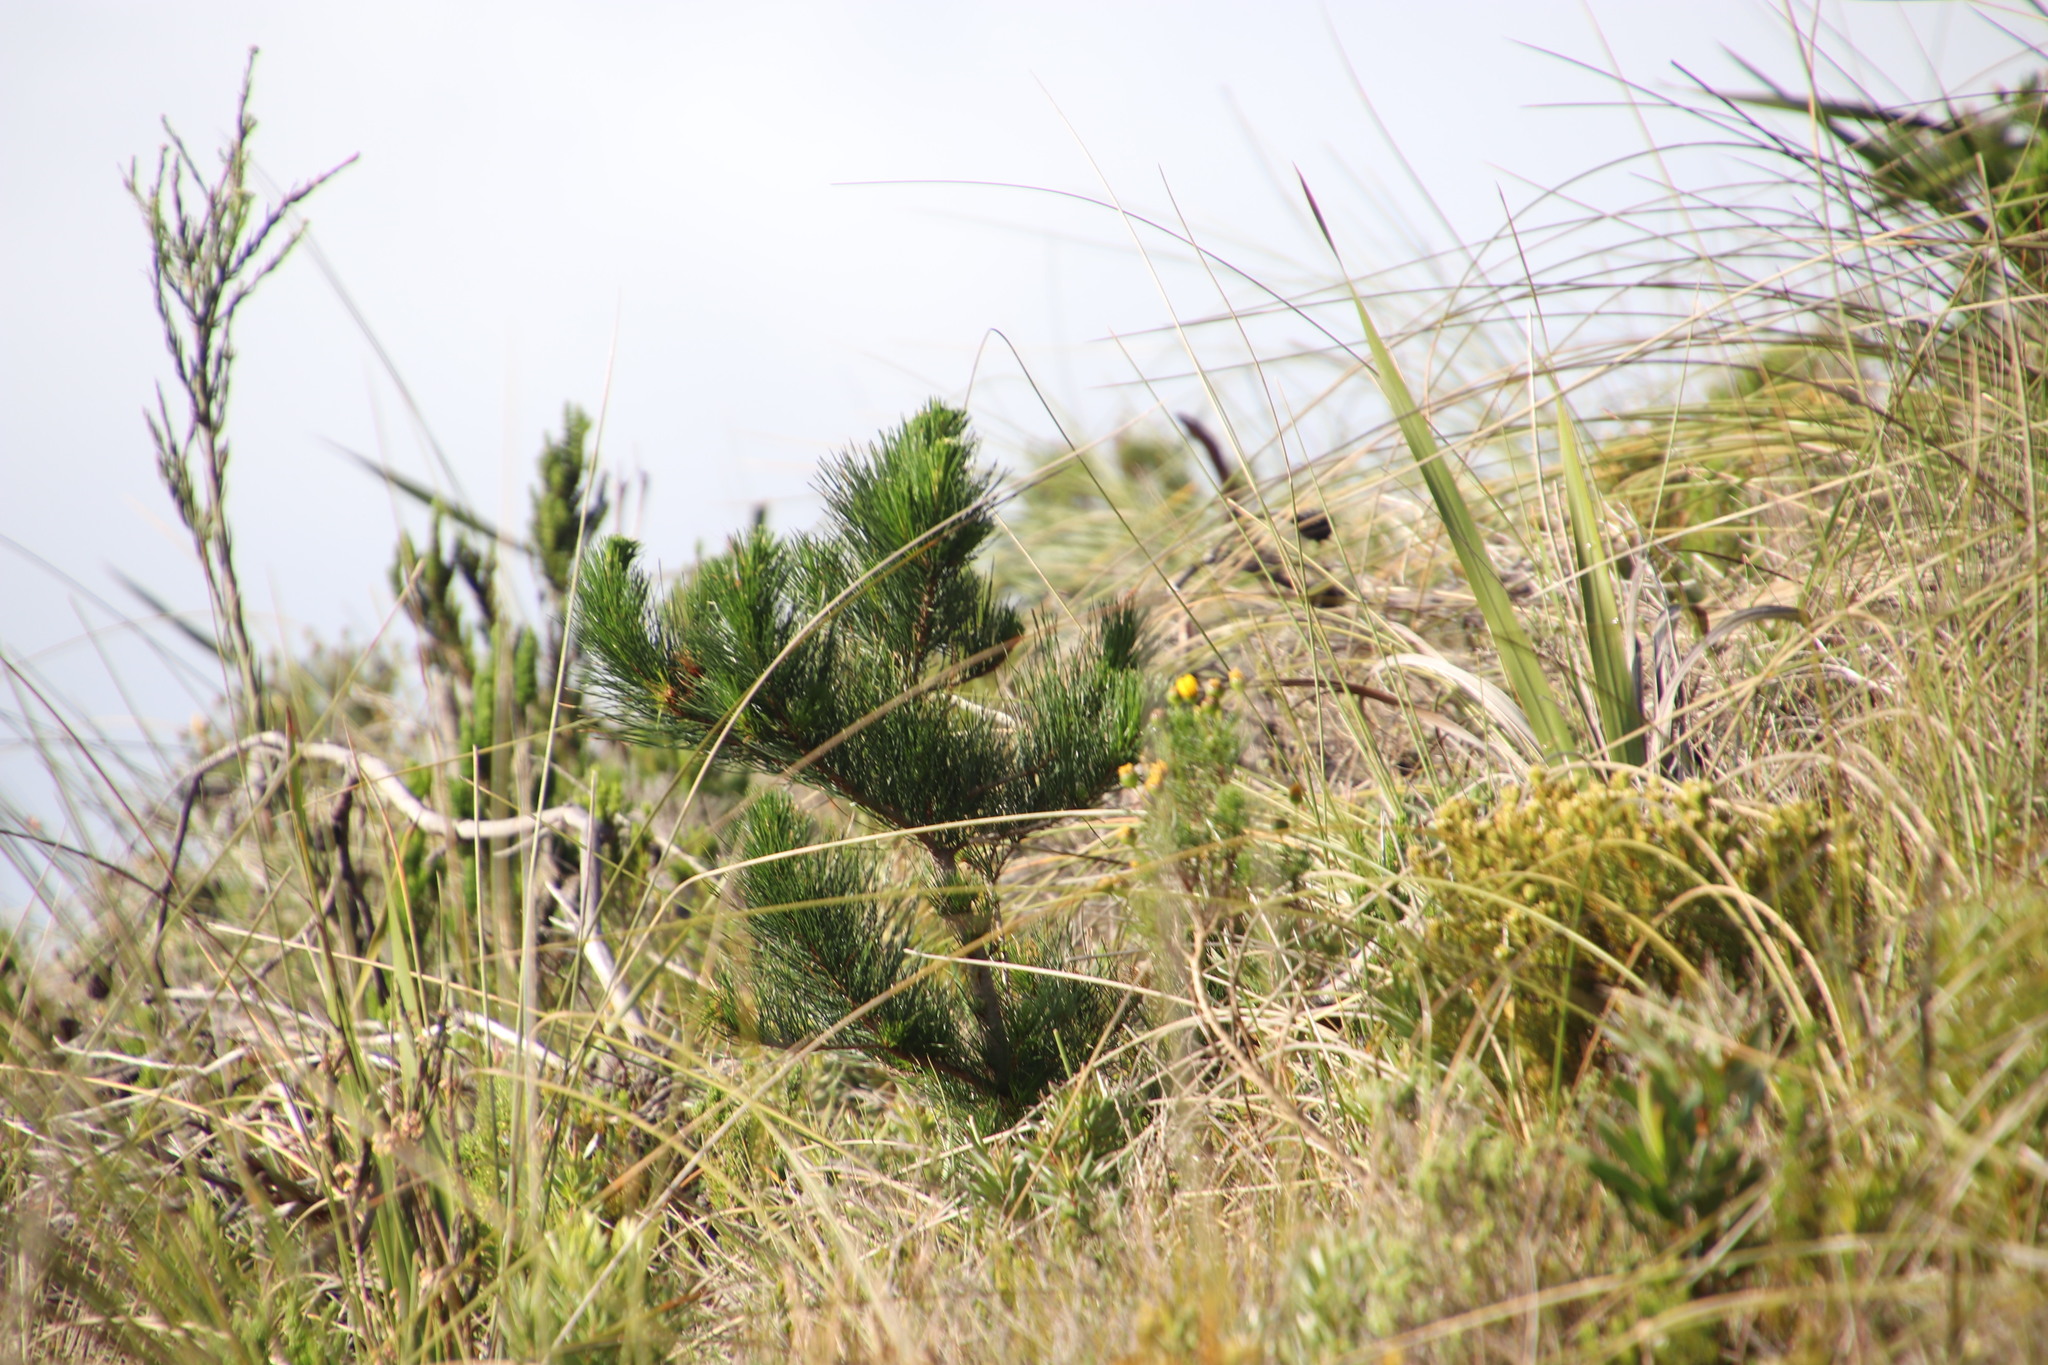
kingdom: Plantae
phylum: Tracheophyta
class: Pinopsida
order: Pinales
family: Pinaceae
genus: Pinus
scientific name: Pinus pinaster
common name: Maritime pine
